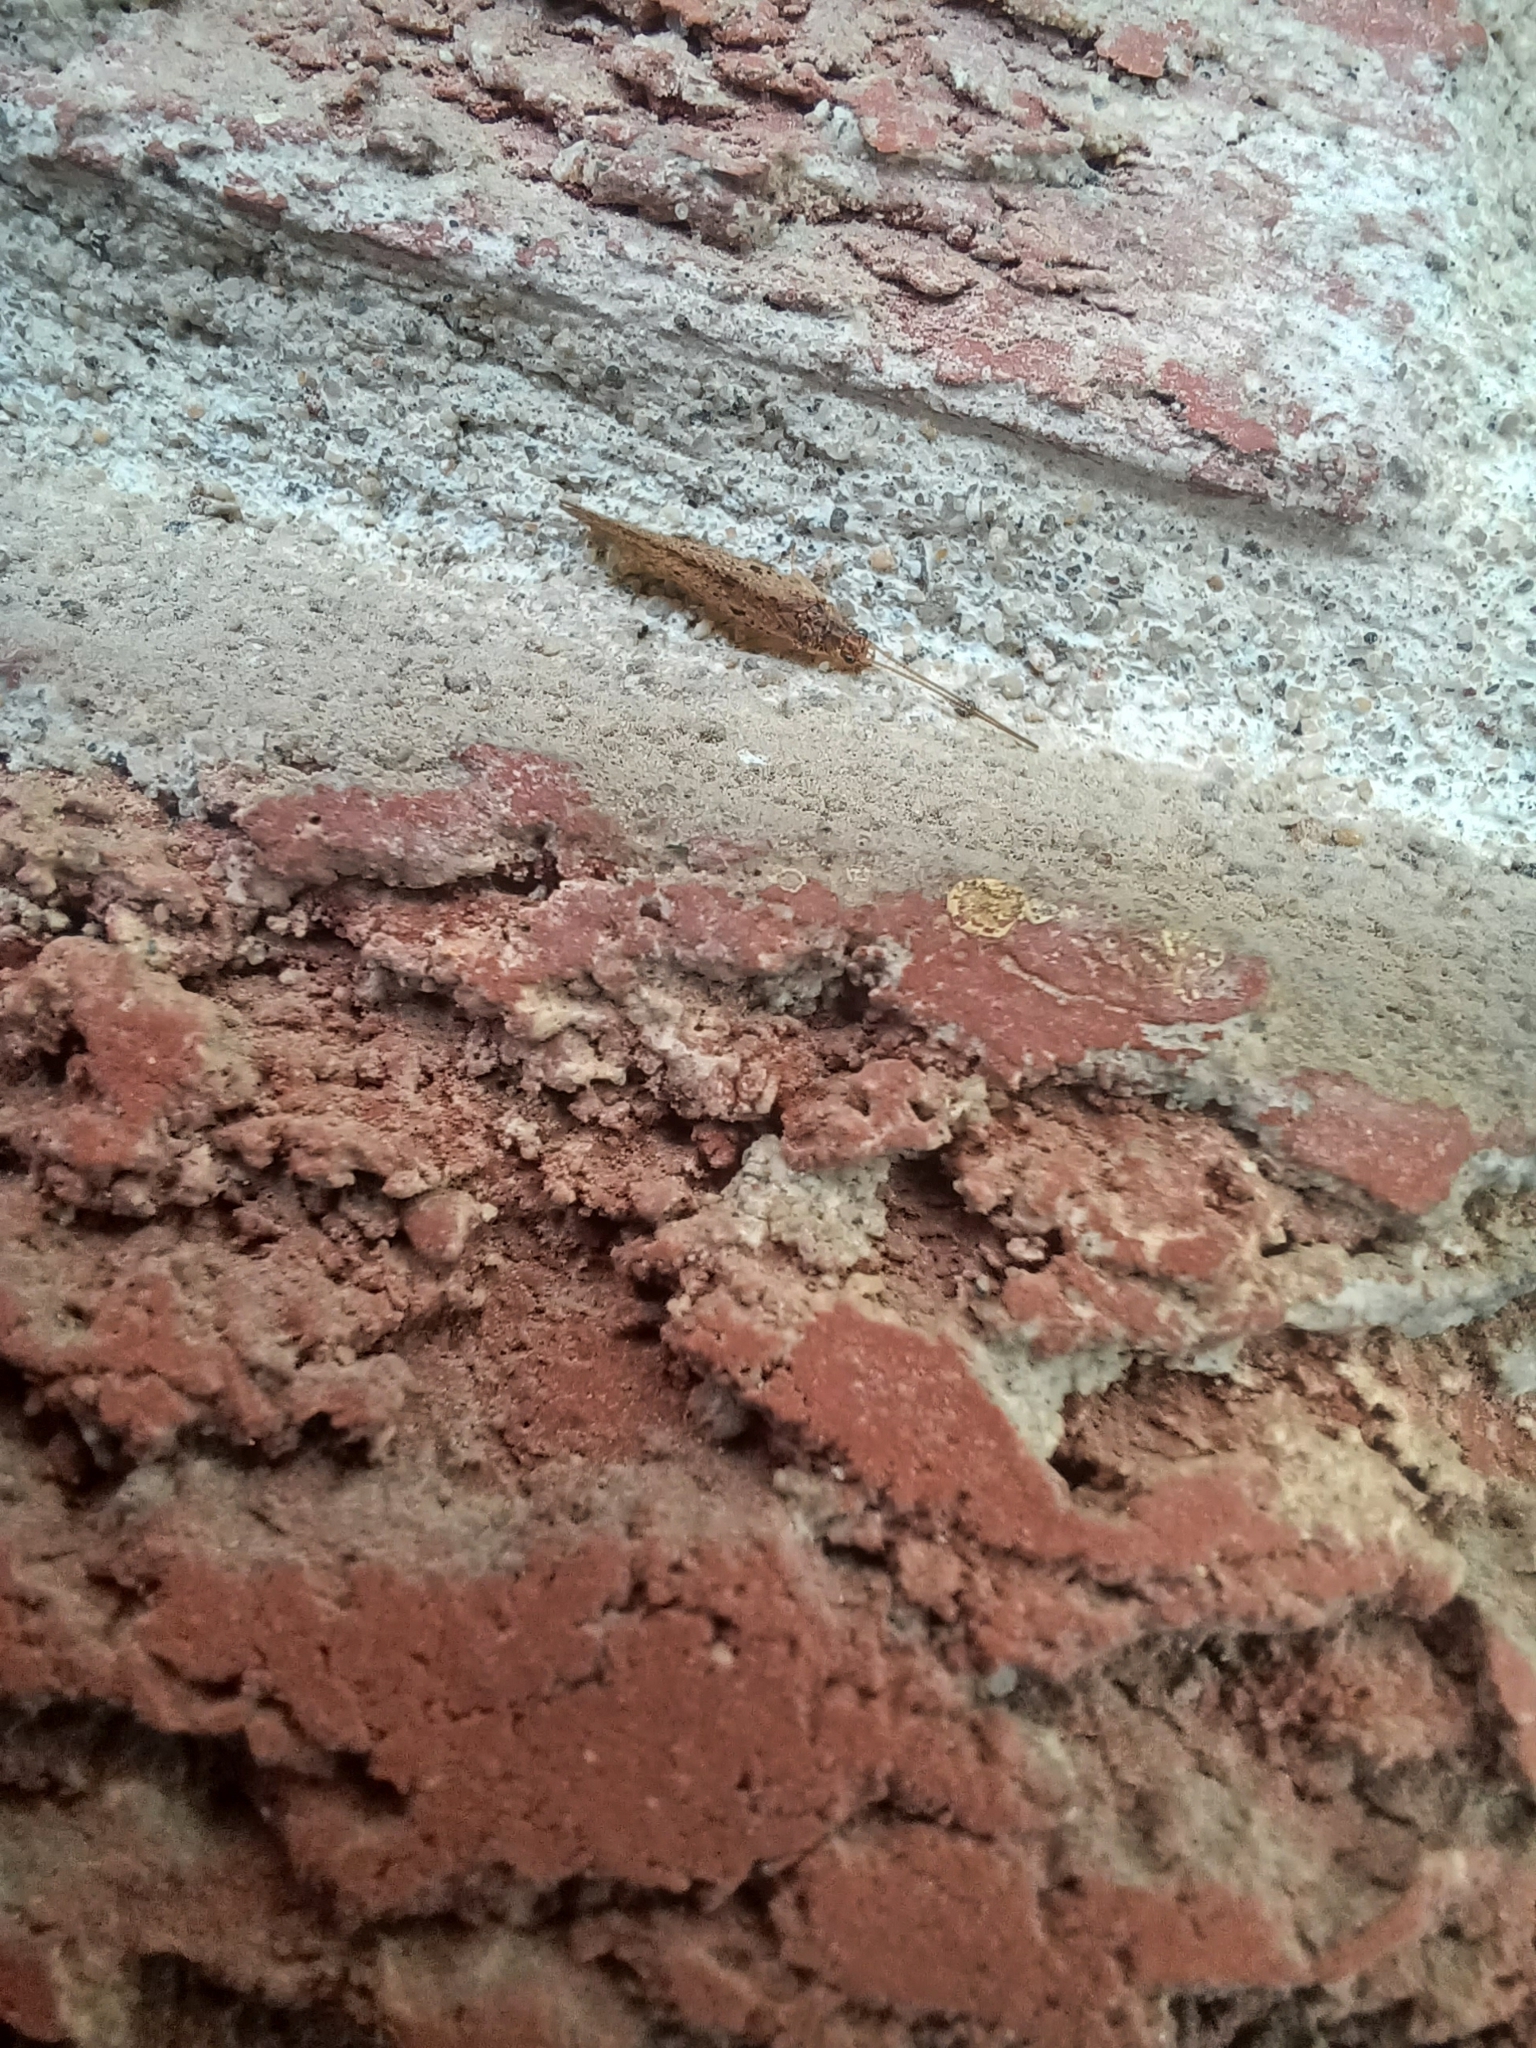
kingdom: Animalia
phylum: Arthropoda
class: Insecta
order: Neuroptera
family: Hemerobiidae
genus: Micromus
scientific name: Micromus subanticus
